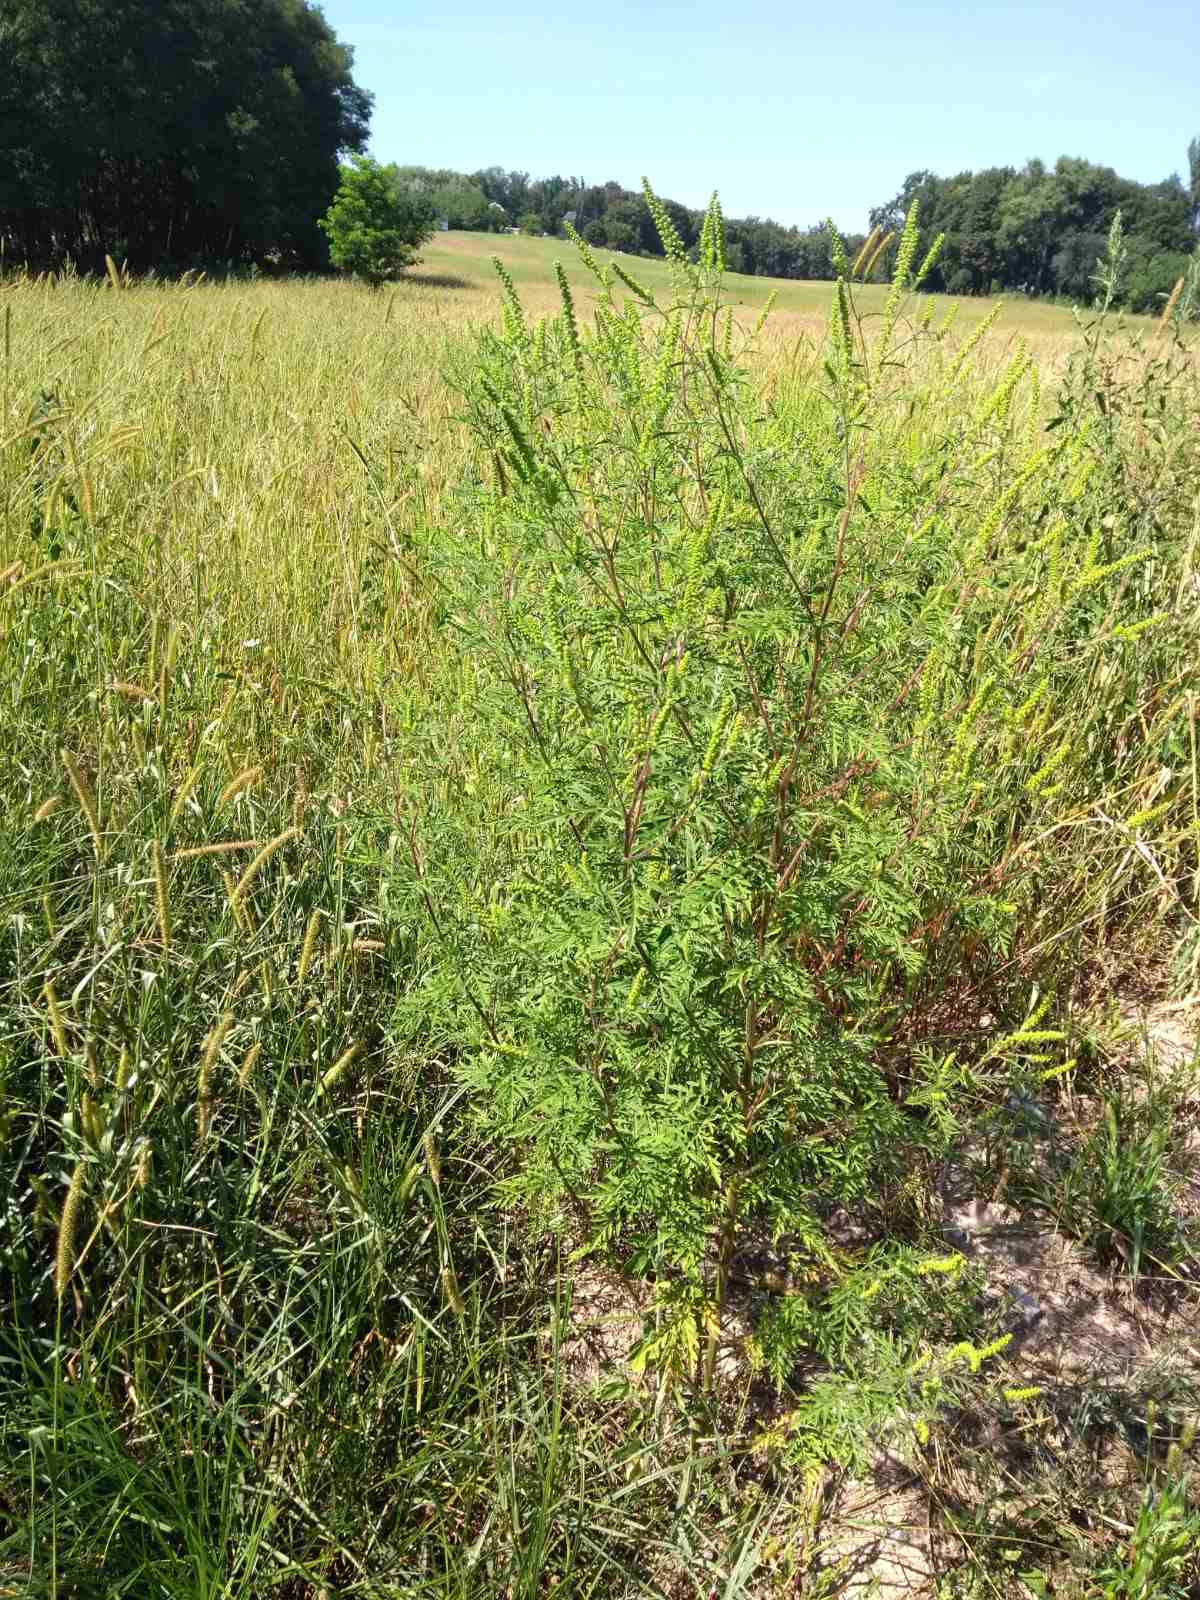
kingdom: Plantae
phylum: Tracheophyta
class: Magnoliopsida
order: Asterales
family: Asteraceae
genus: Ambrosia
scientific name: Ambrosia artemisiifolia
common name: Annual ragweed
